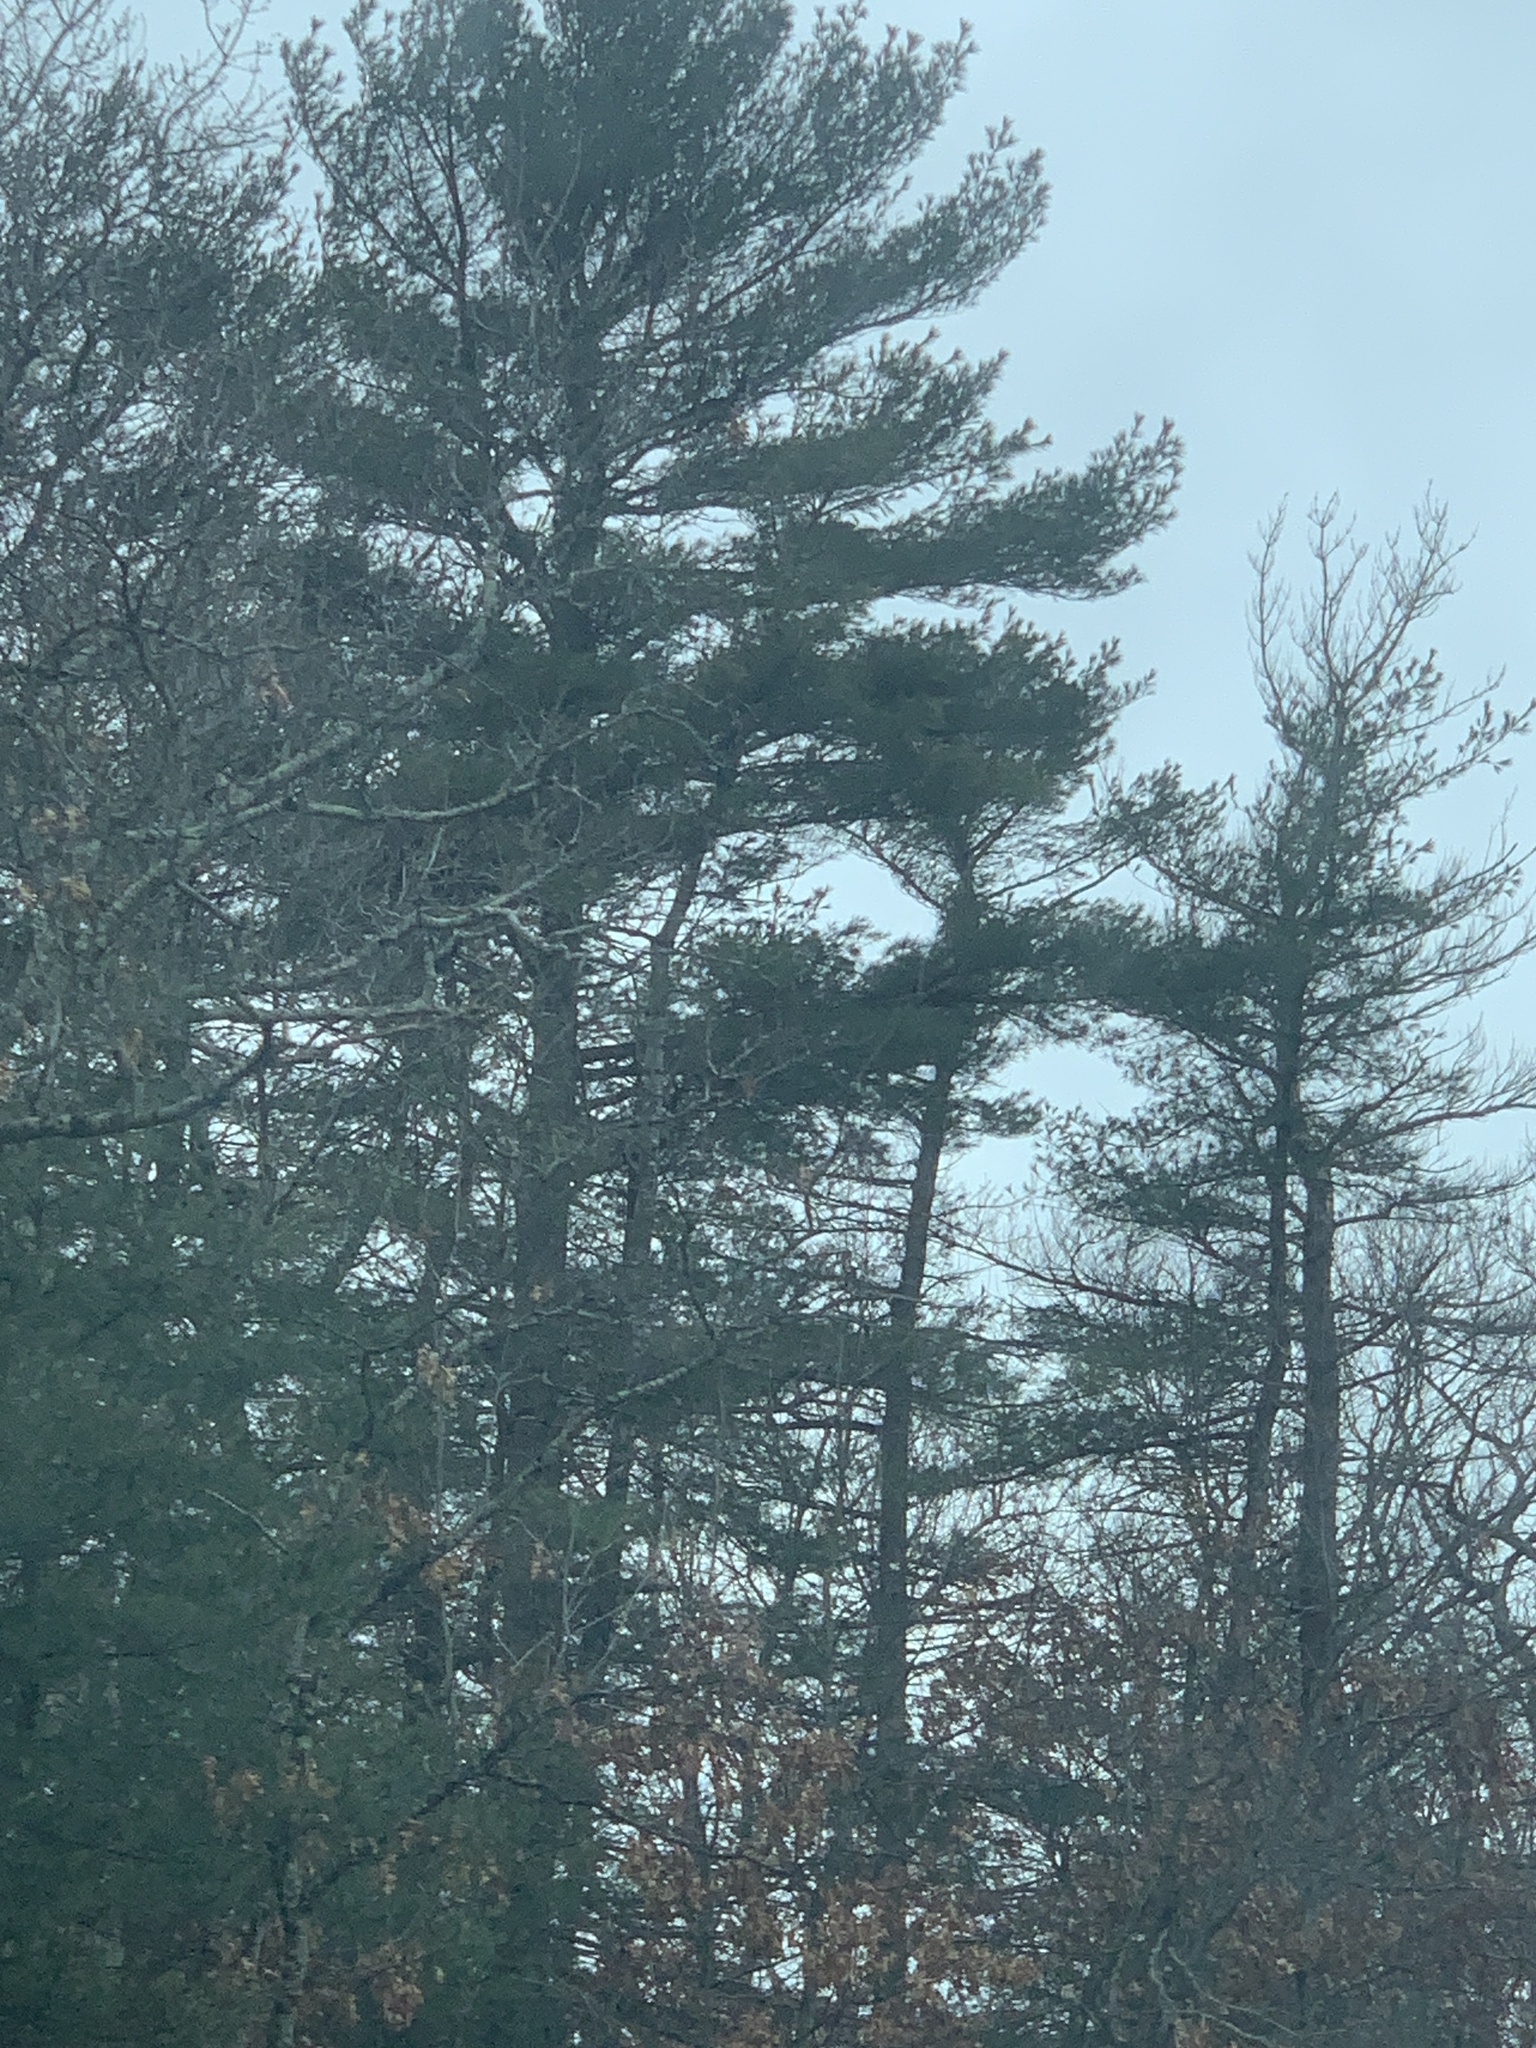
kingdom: Plantae
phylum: Tracheophyta
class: Pinopsida
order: Pinales
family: Pinaceae
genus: Pinus
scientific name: Pinus strobus
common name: Weymouth pine
